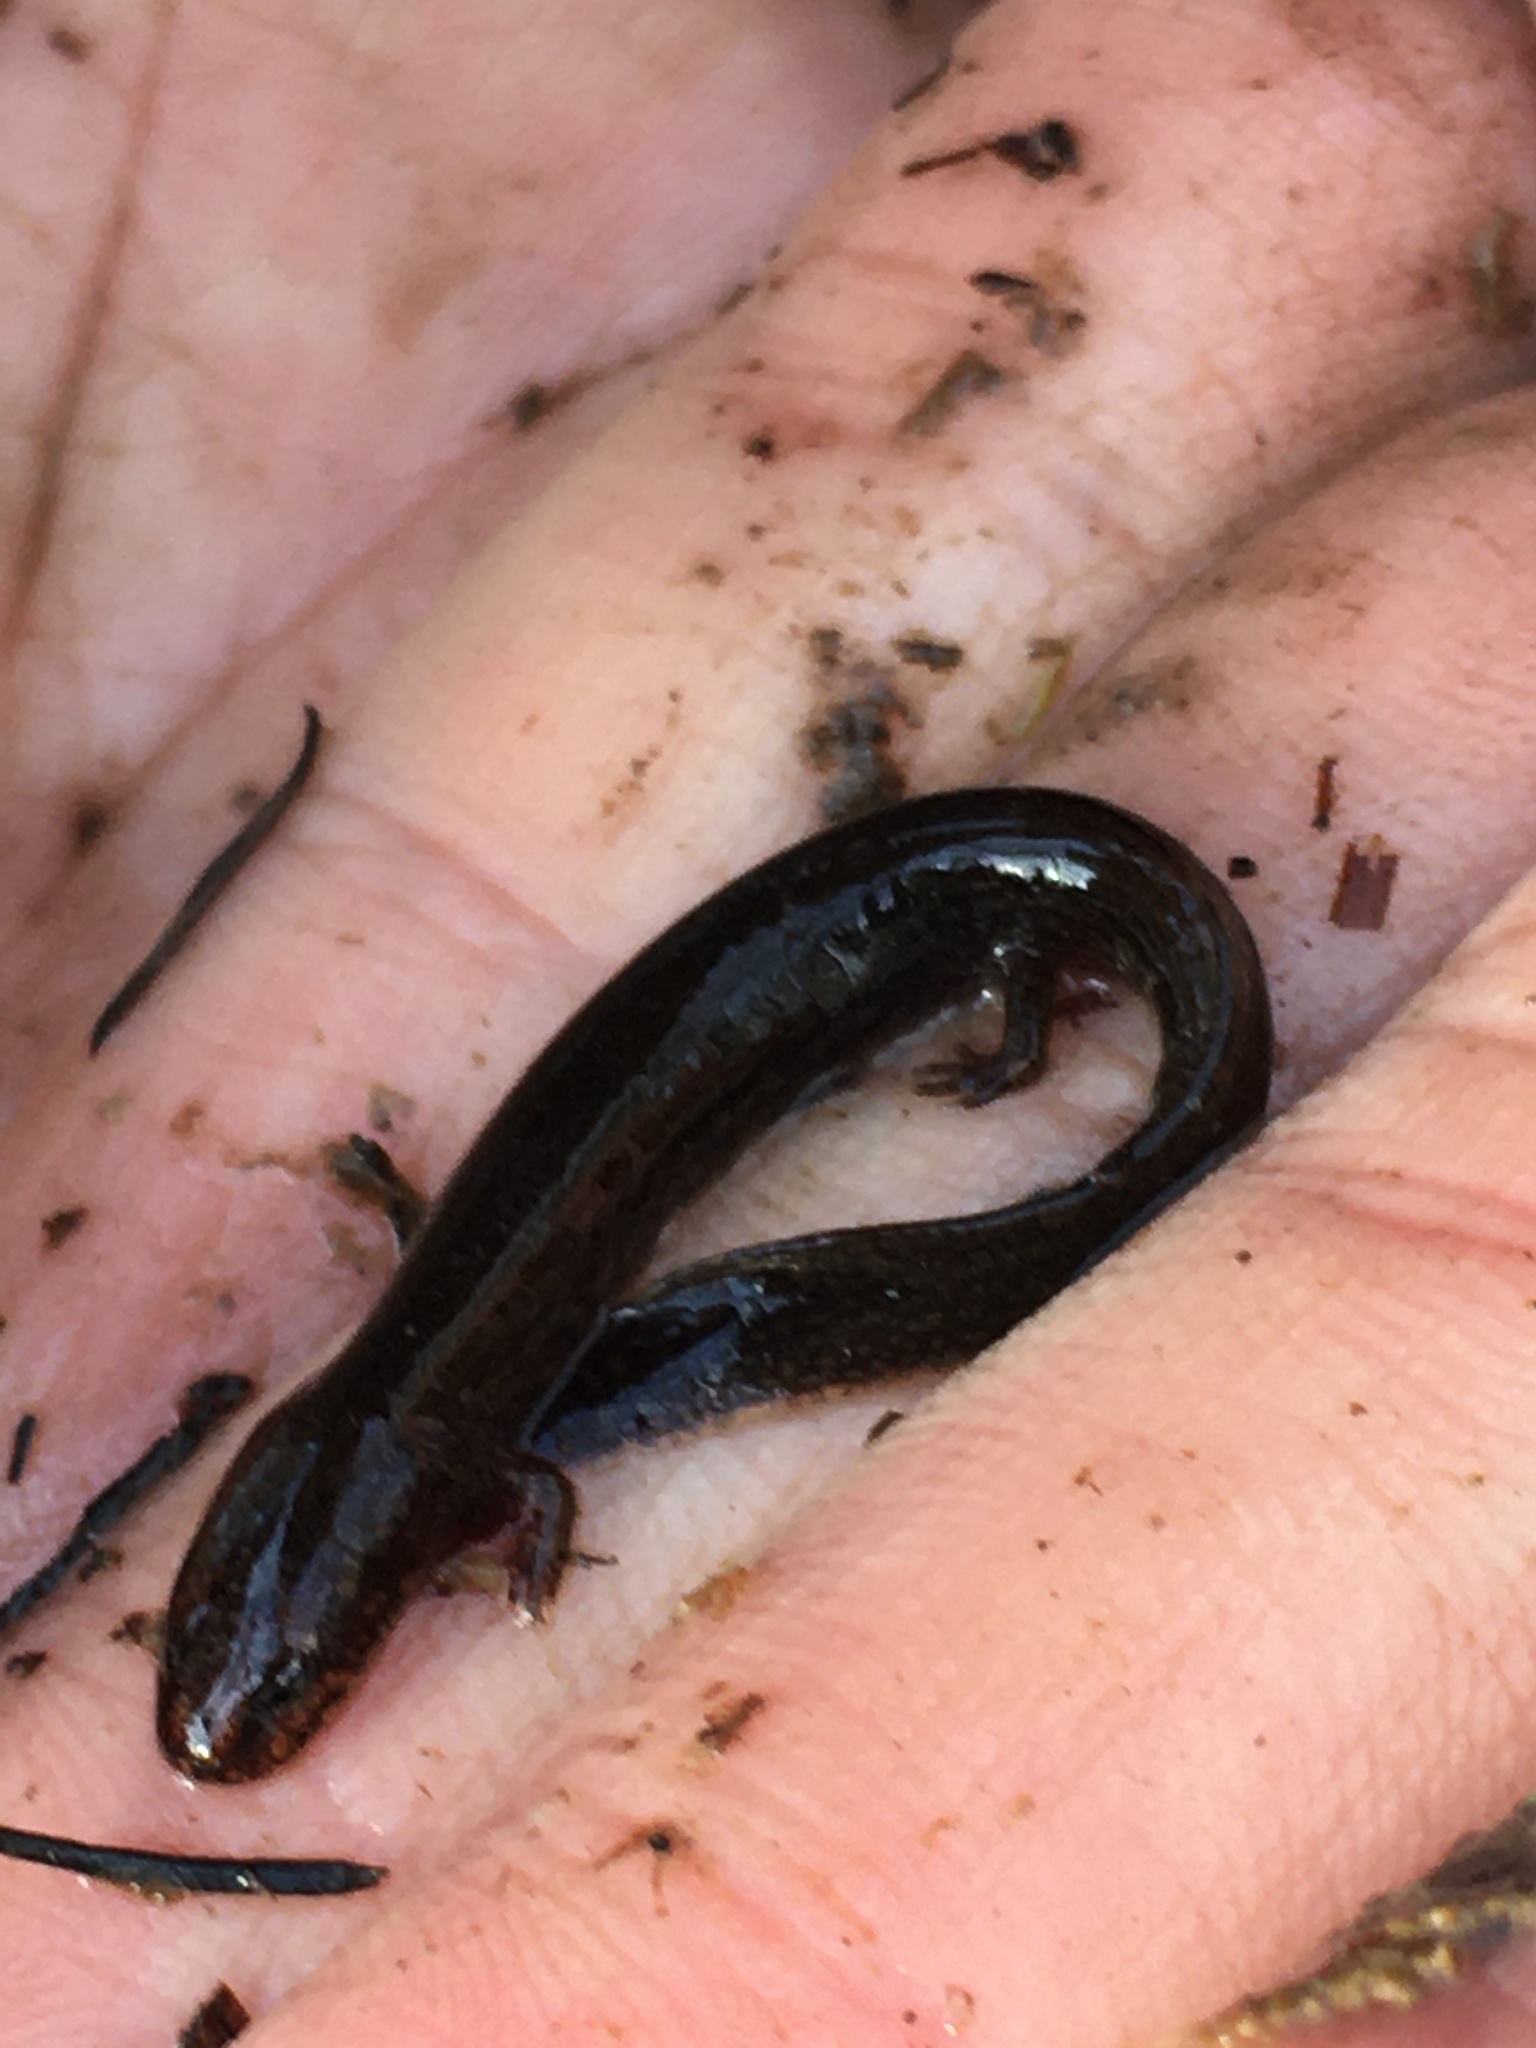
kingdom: Animalia
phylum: Chordata
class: Amphibia
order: Caudata
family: Plethodontidae
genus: Stereochilus
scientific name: Stereochilus marginatus
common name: Many-lined salamander
